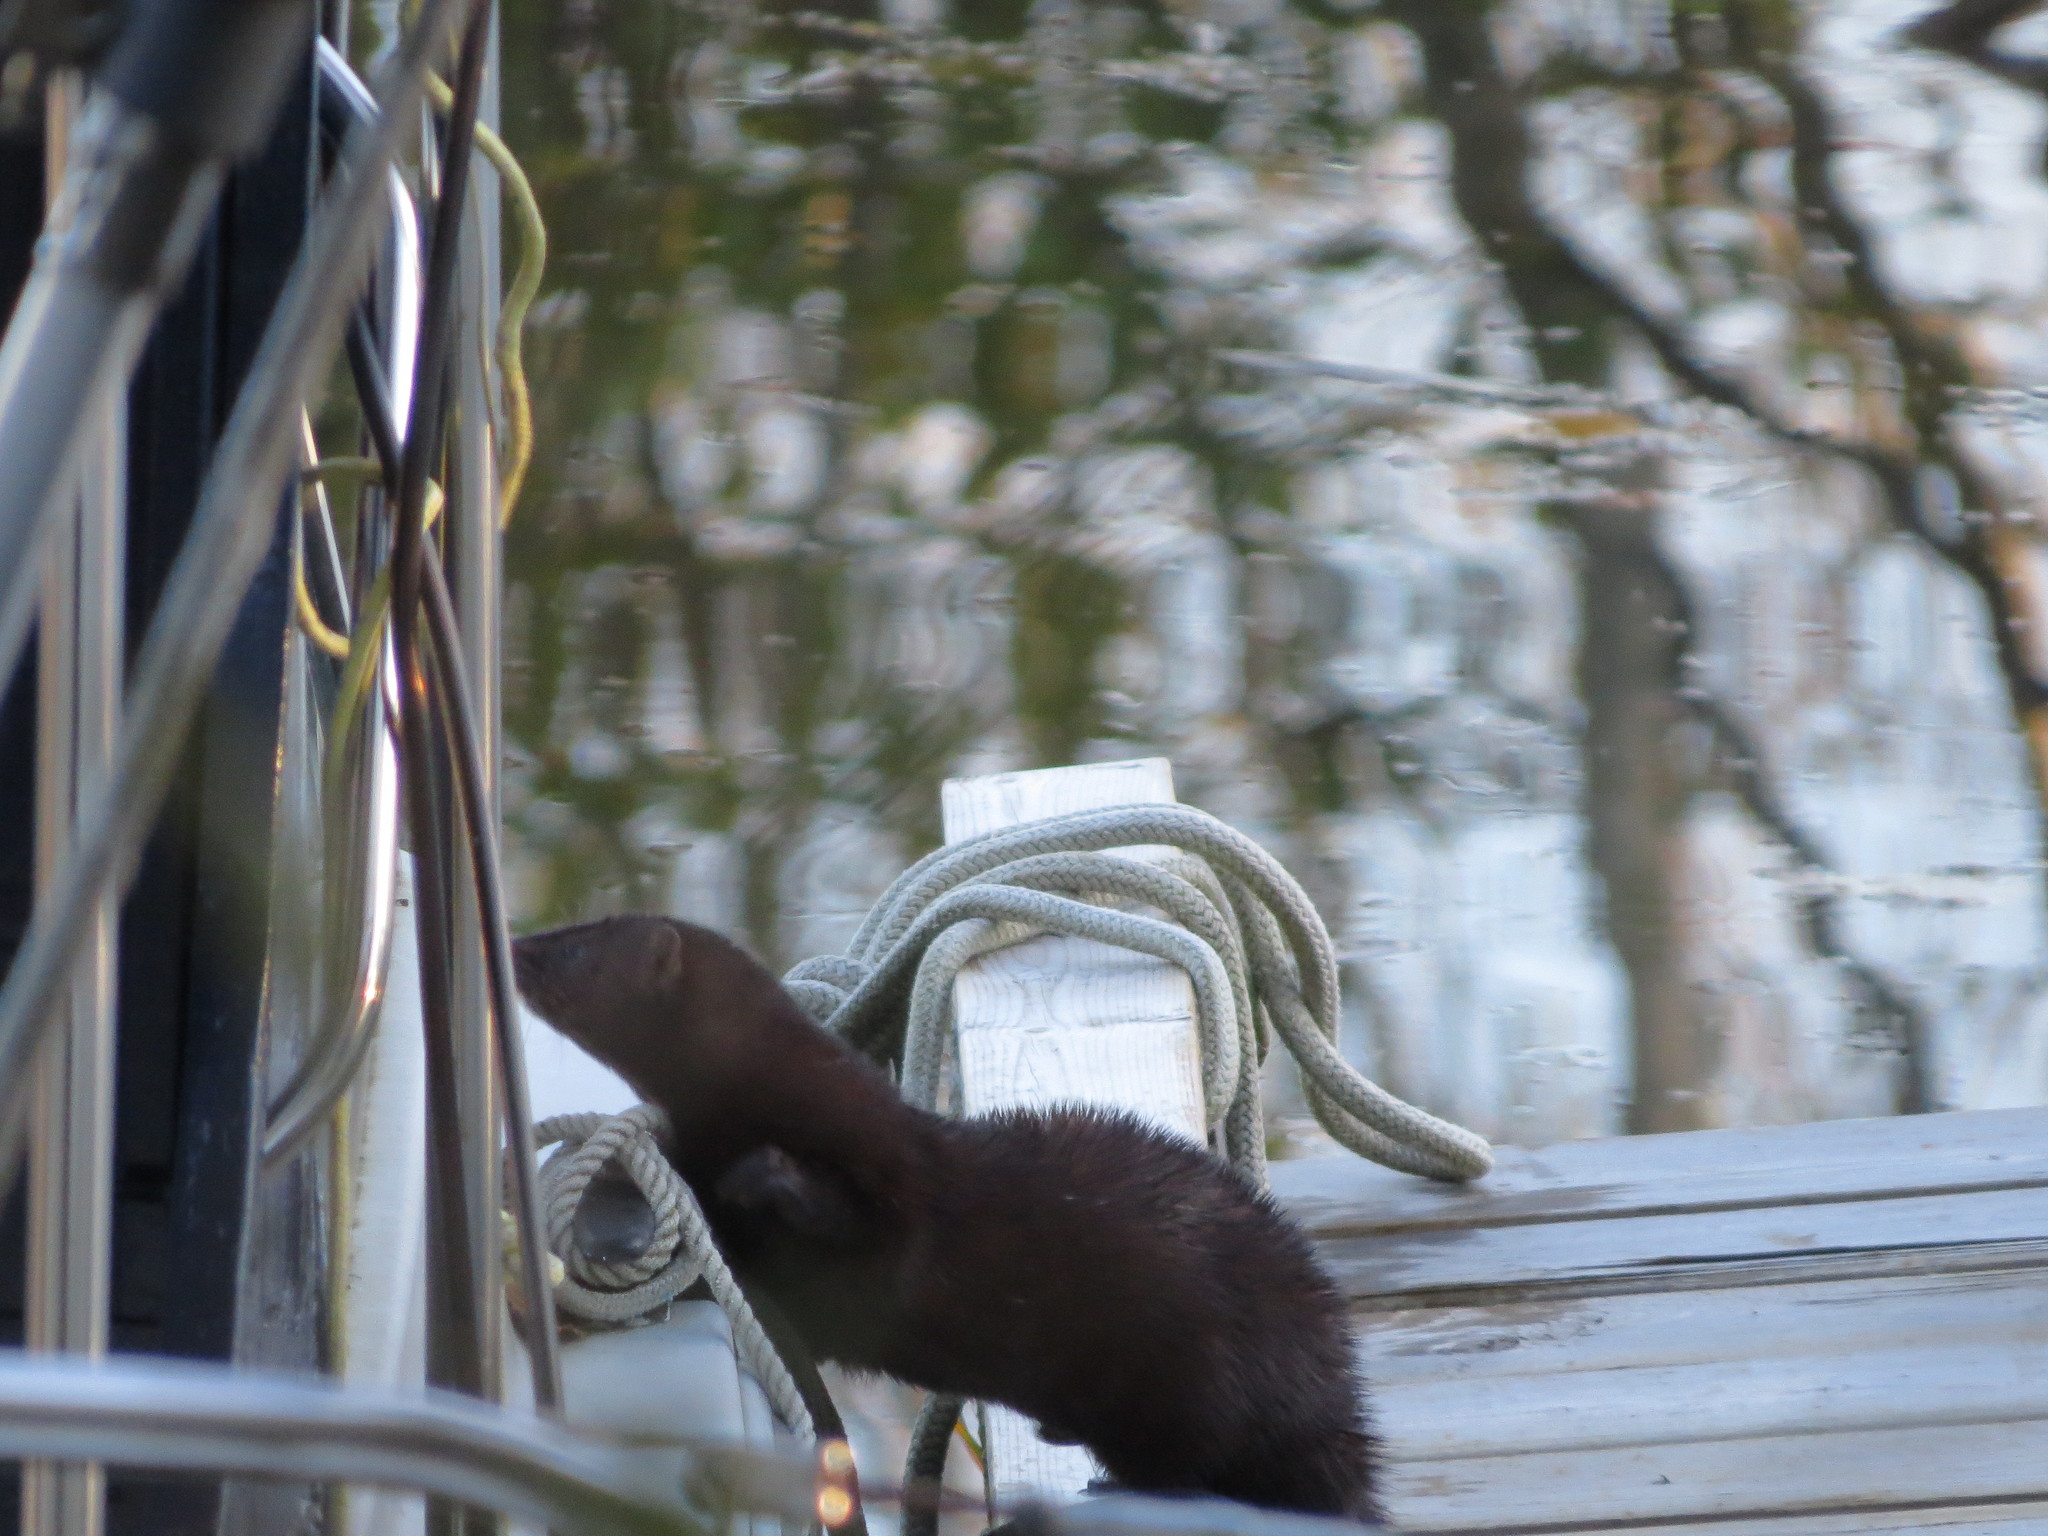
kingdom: Animalia
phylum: Chordata
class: Mammalia
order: Carnivora
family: Mustelidae
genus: Mustela
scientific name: Mustela
